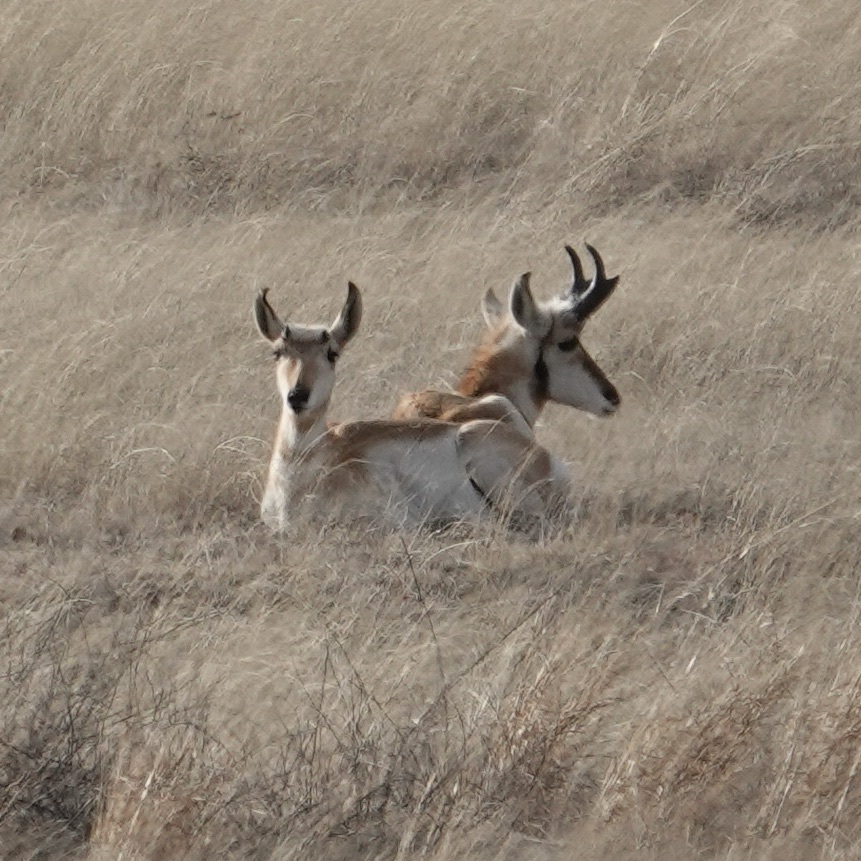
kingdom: Animalia
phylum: Chordata
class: Mammalia
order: Artiodactyla
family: Antilocapridae
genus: Antilocapra
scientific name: Antilocapra americana
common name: Pronghorn
